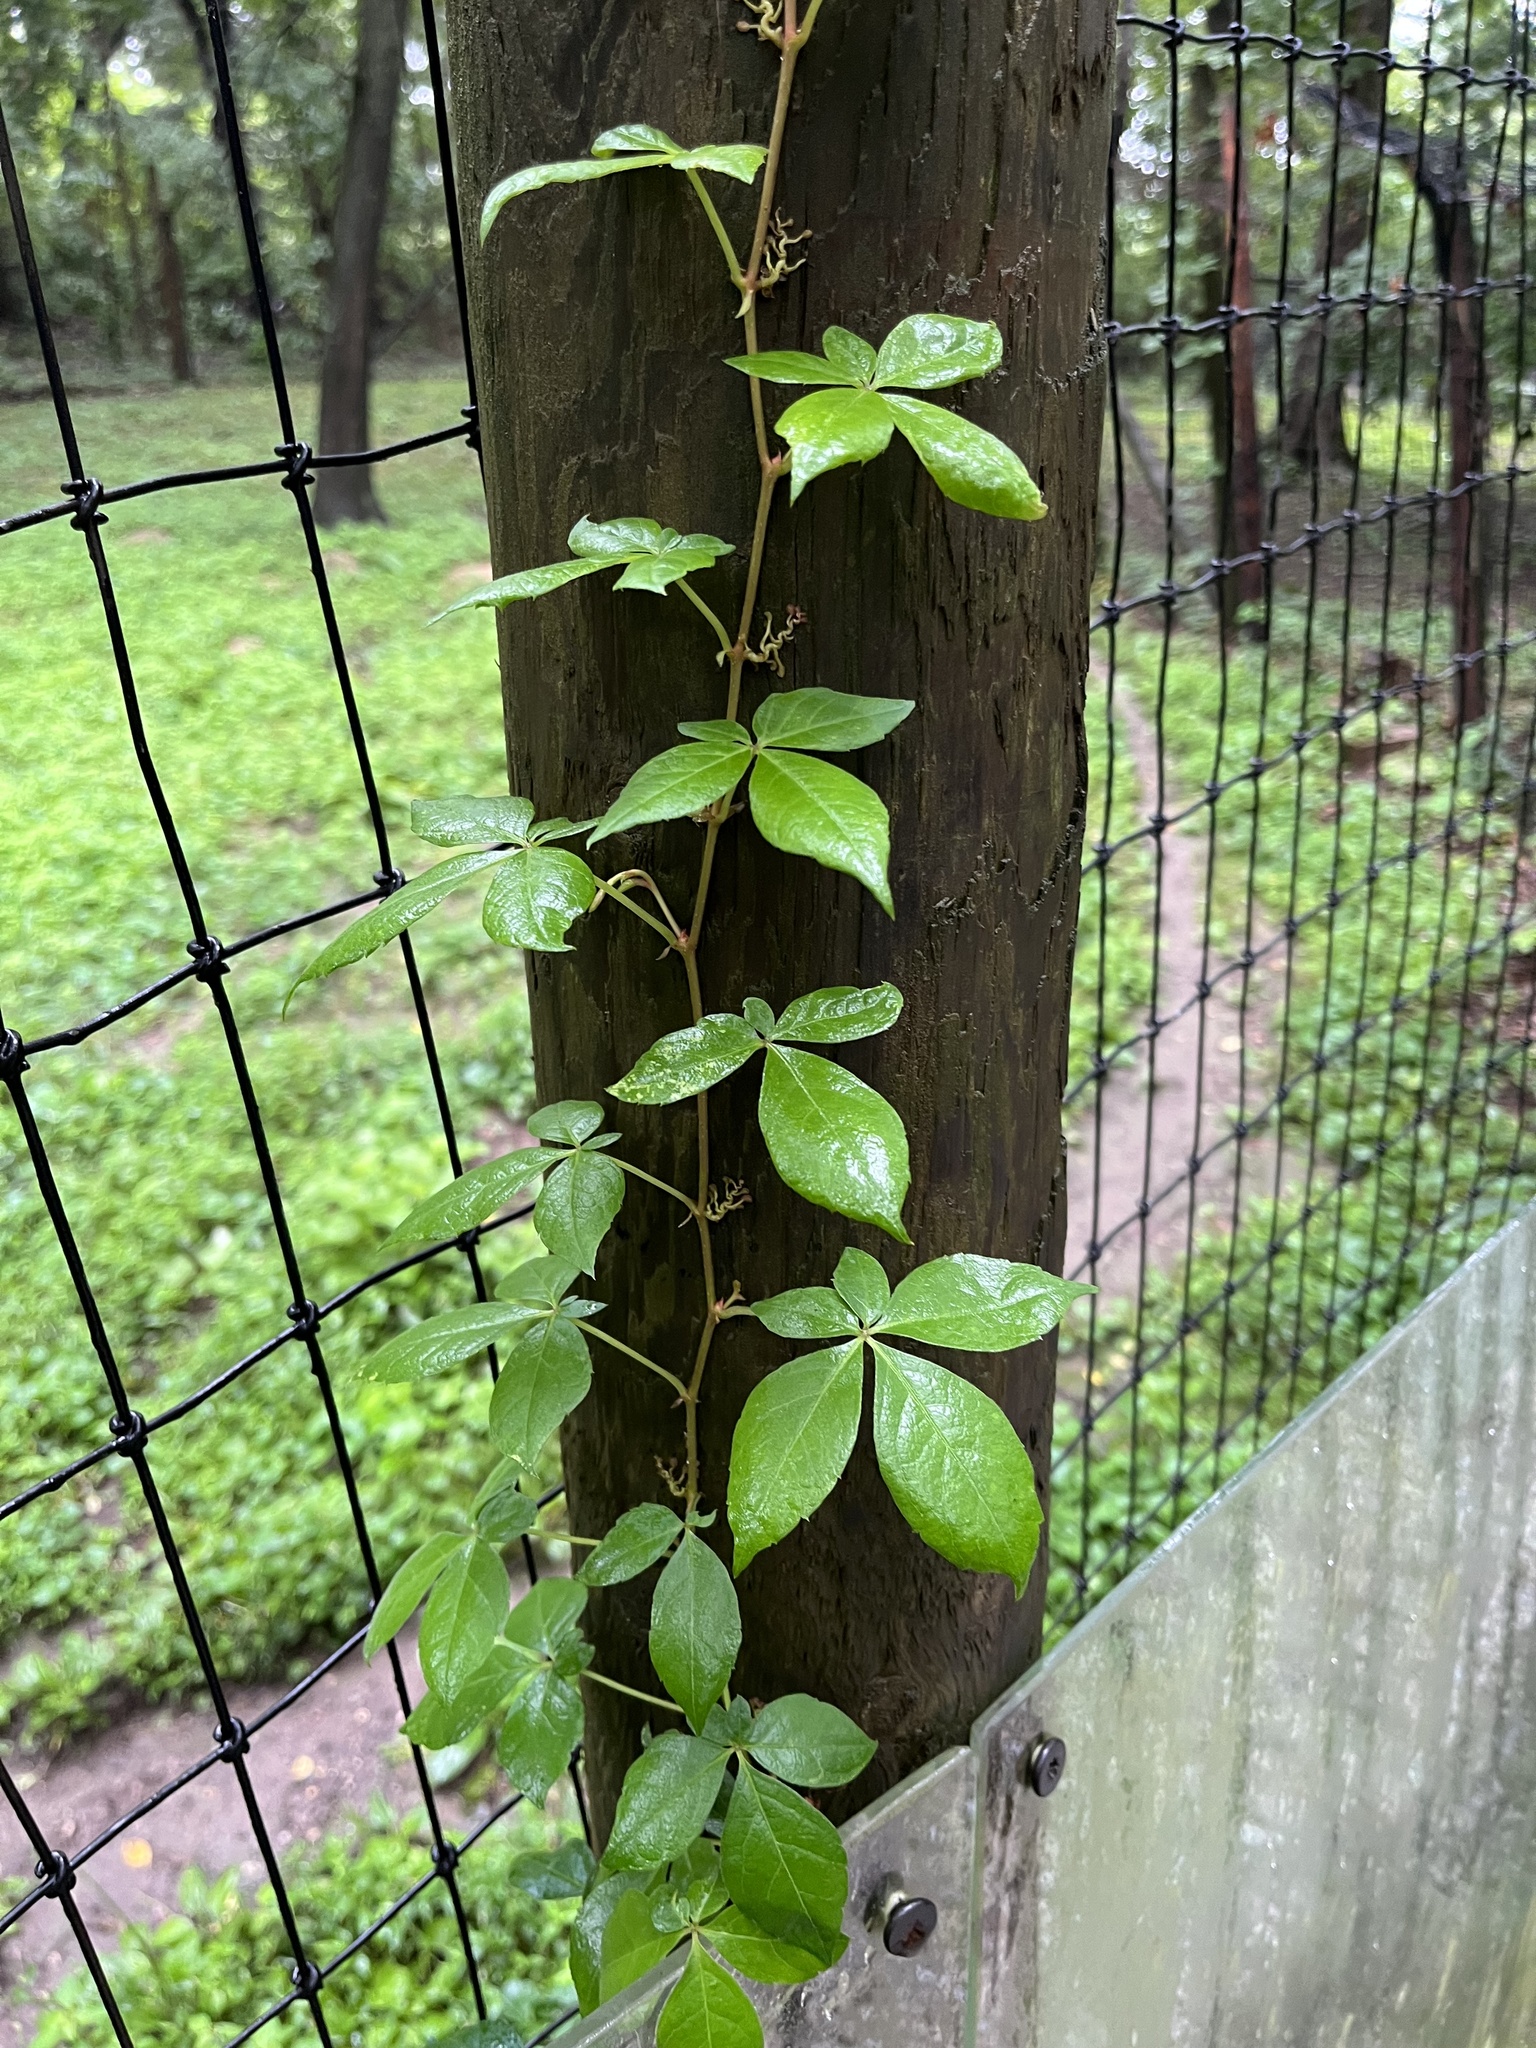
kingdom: Plantae
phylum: Tracheophyta
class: Magnoliopsida
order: Vitales
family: Vitaceae
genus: Parthenocissus
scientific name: Parthenocissus quinquefolia
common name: Virginia-creeper
